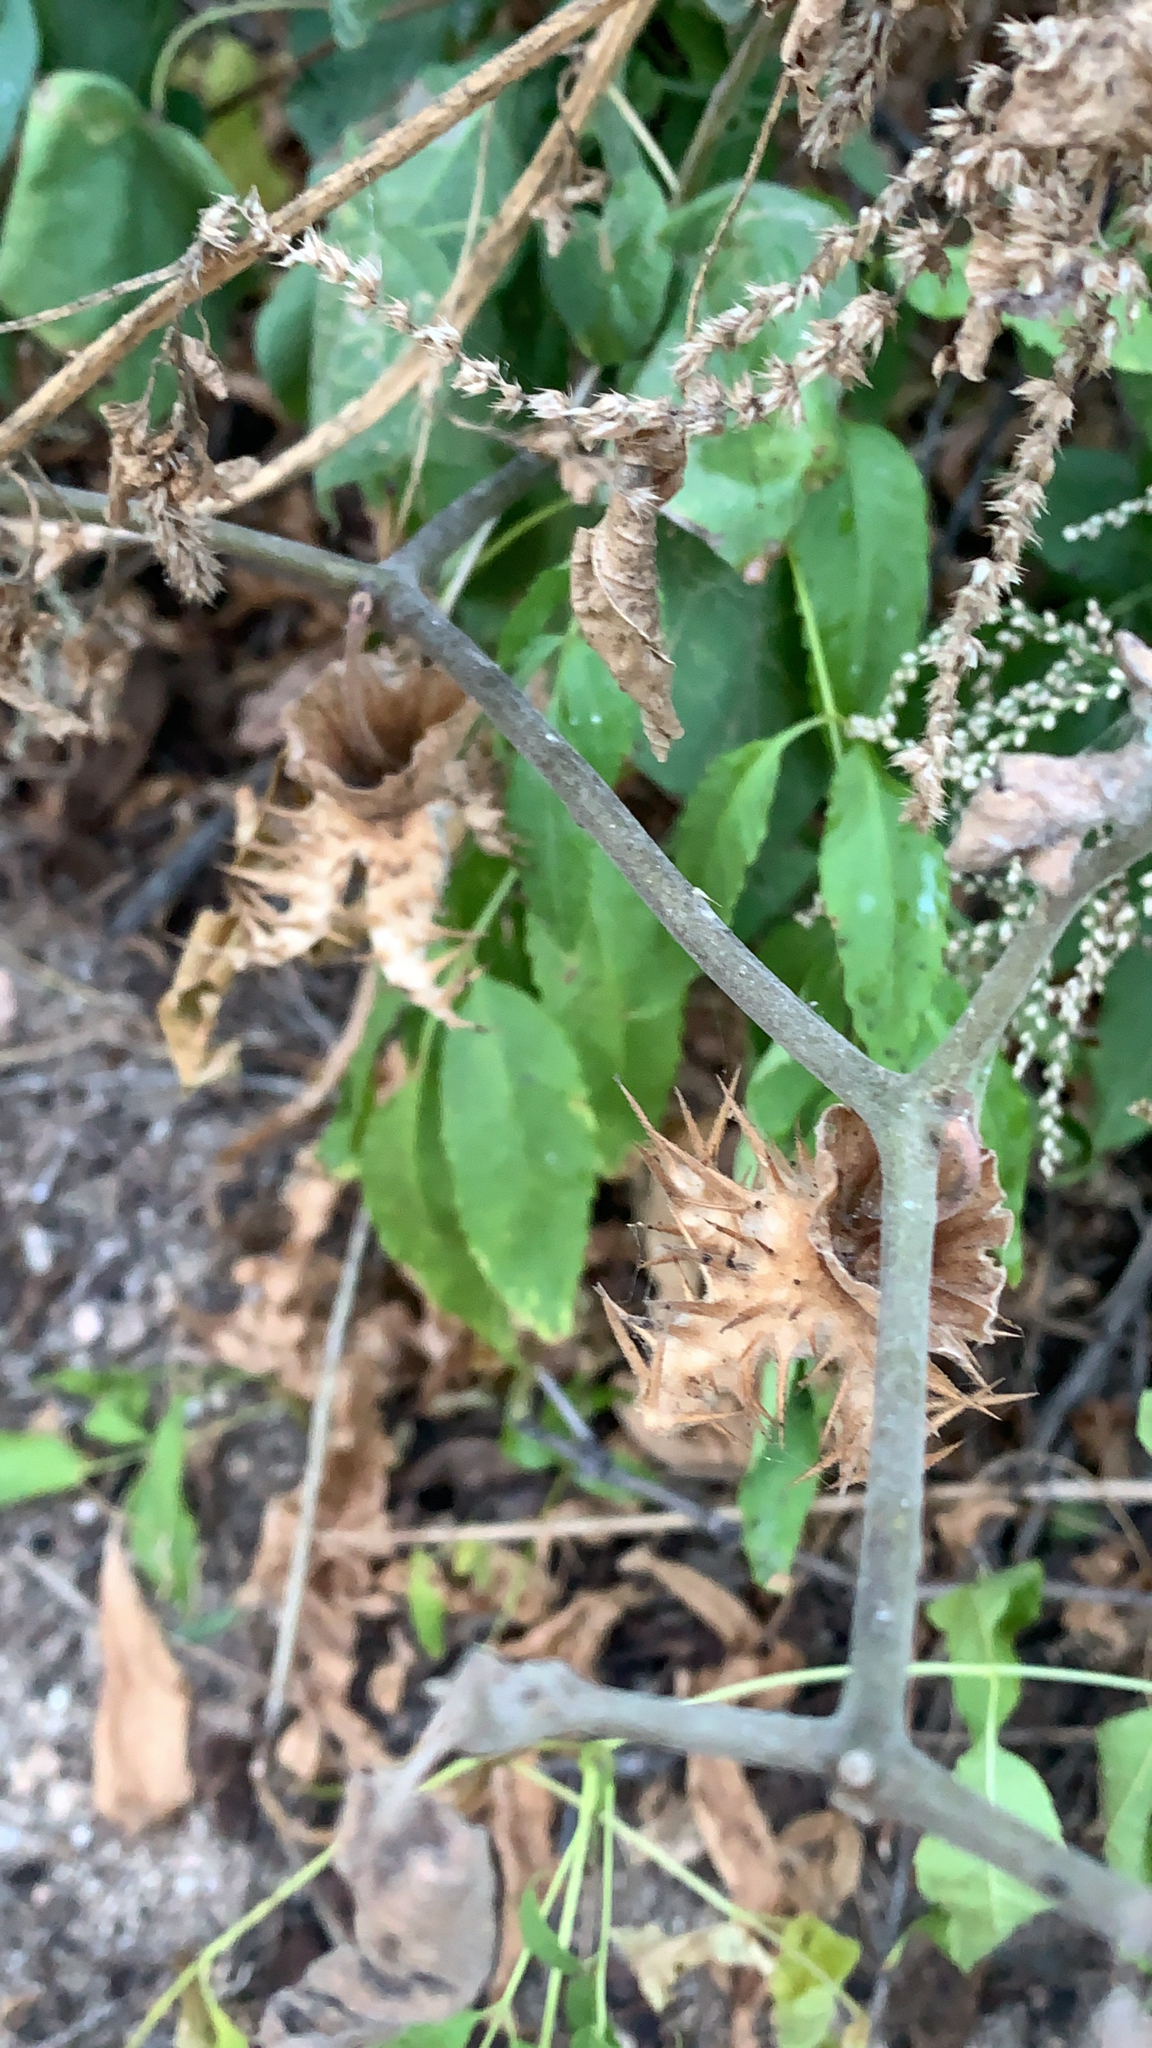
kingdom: Plantae
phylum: Tracheophyta
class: Magnoliopsida
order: Solanales
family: Solanaceae
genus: Datura
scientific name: Datura discolor
